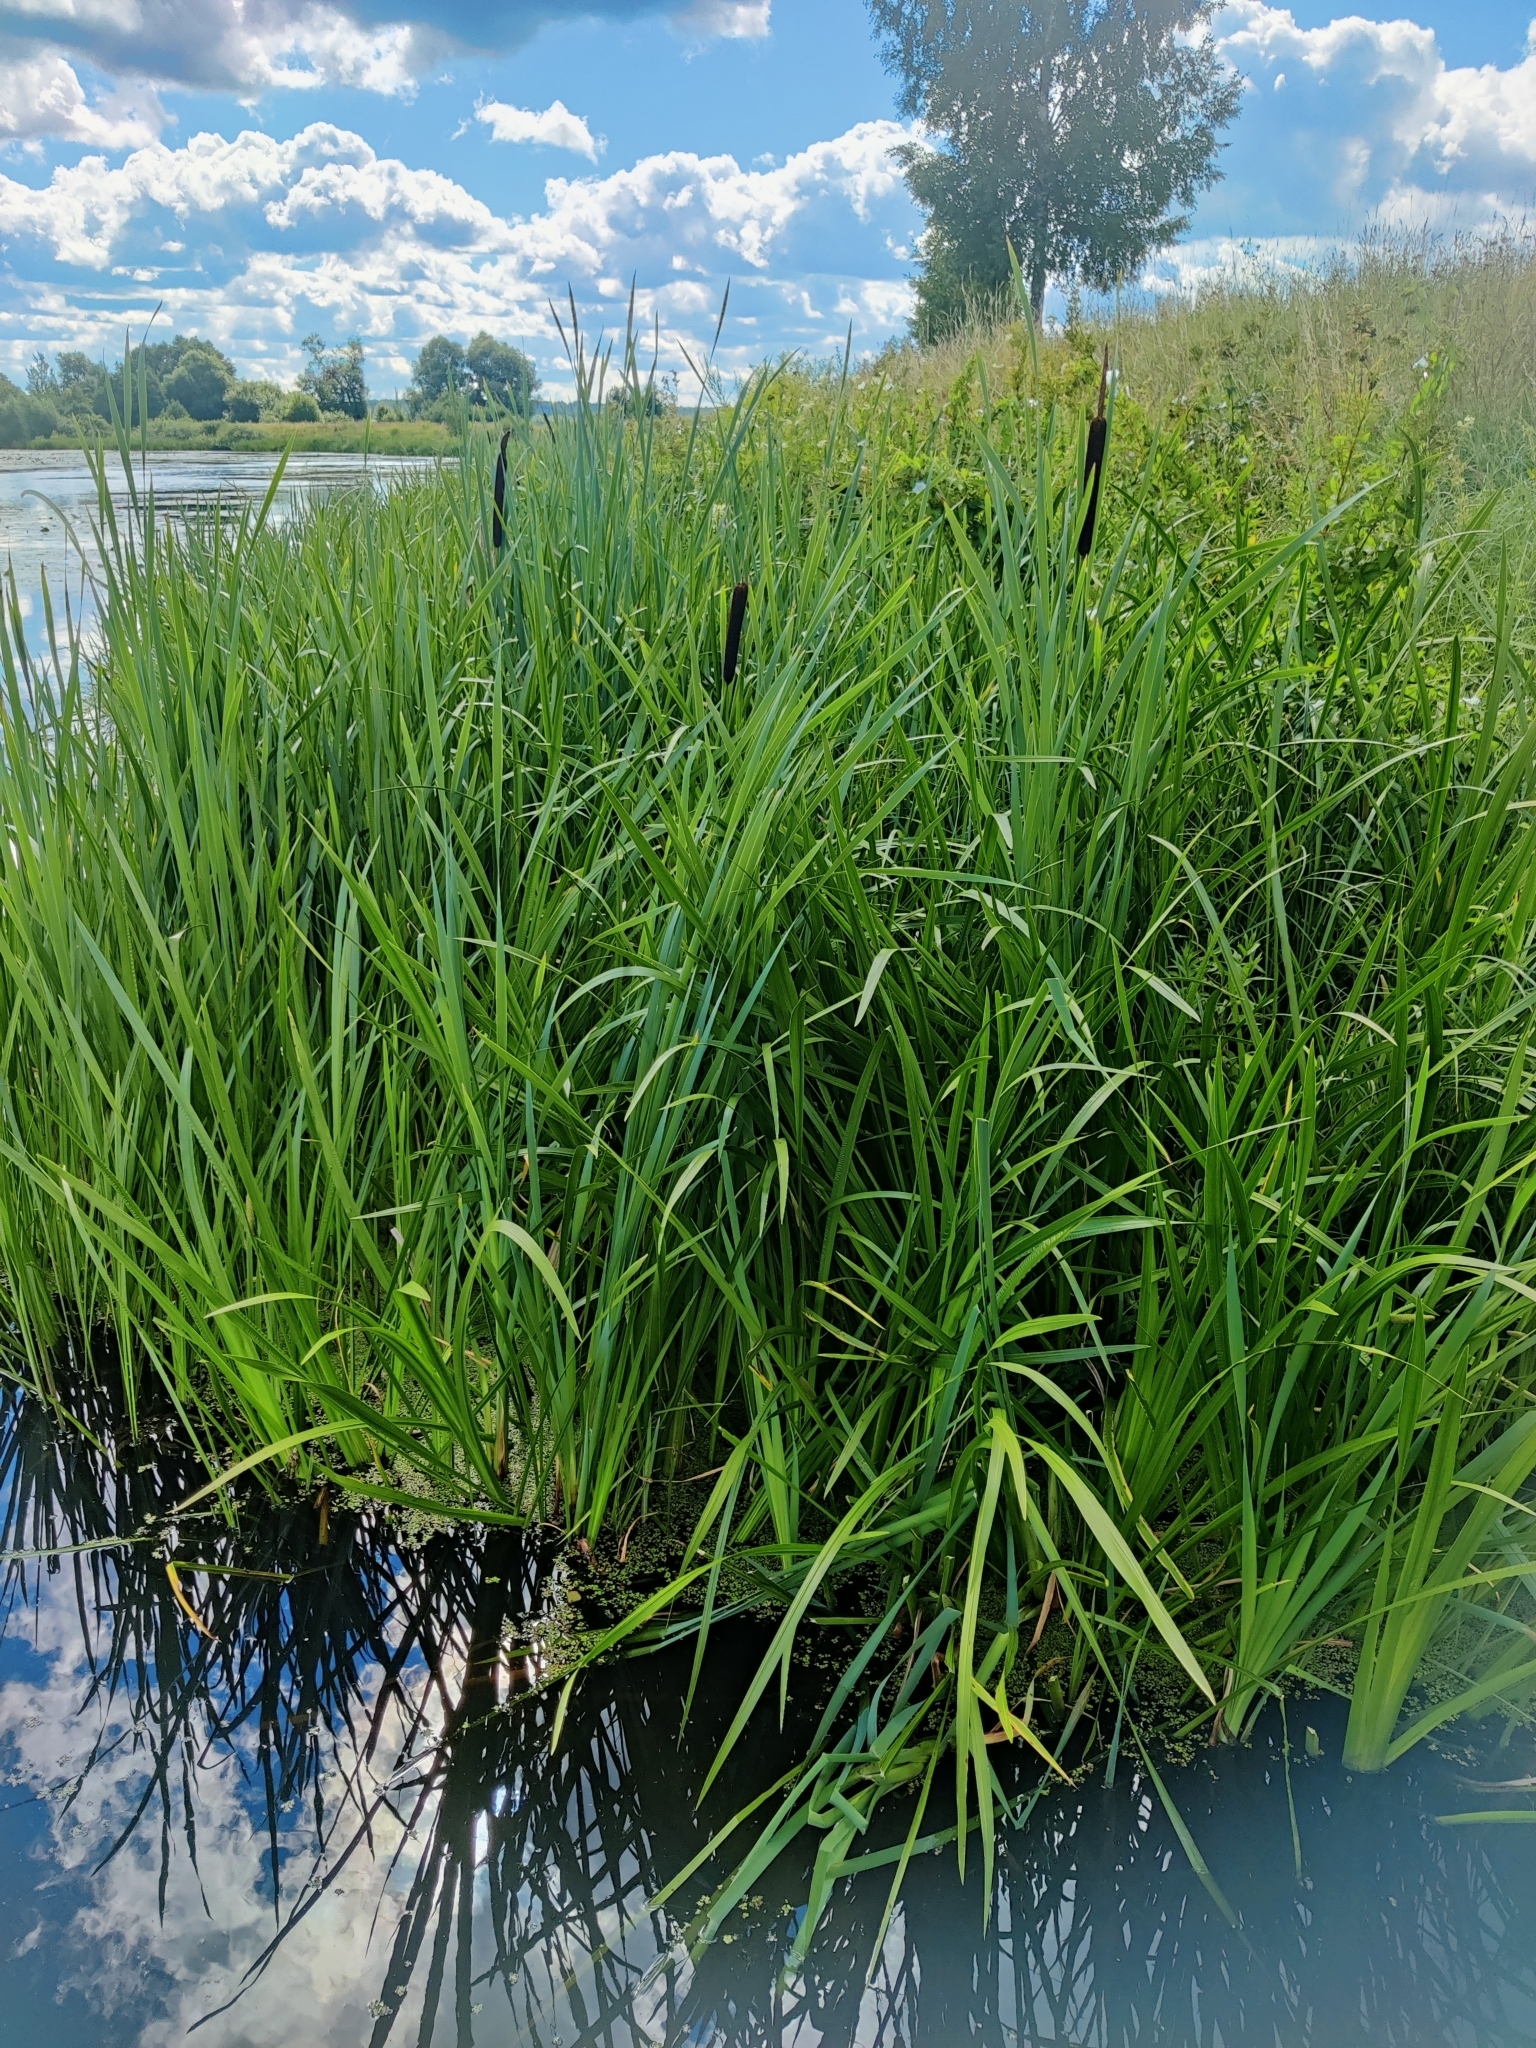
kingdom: Plantae
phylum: Tracheophyta
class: Liliopsida
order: Poales
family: Typhaceae
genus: Typha
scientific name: Typha latifolia
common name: Broadleaf cattail
